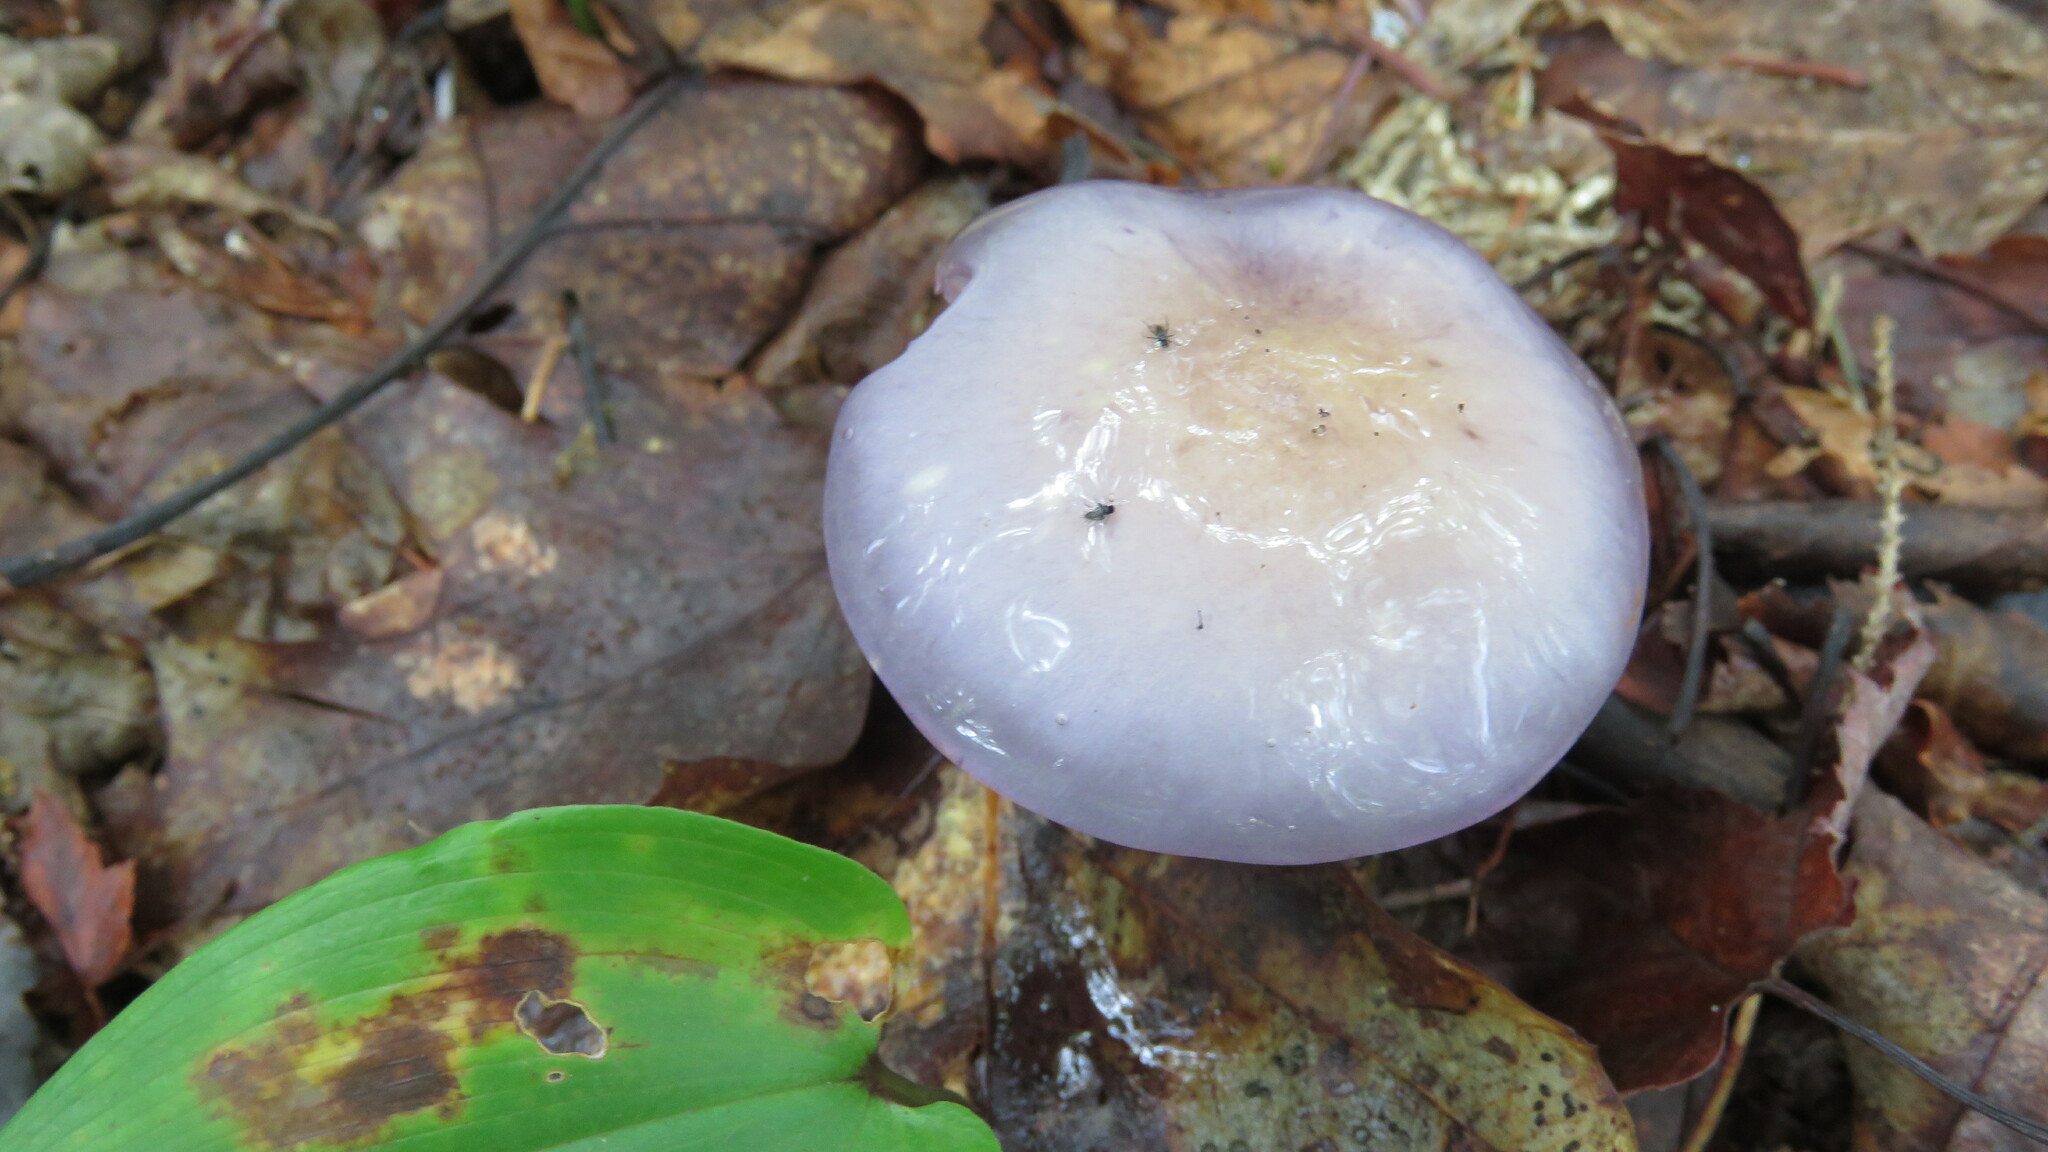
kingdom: Fungi
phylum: Basidiomycota
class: Agaricomycetes
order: Agaricales
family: Cortinariaceae
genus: Cortinarius
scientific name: Cortinarius iodes
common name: Viscid violet cort
